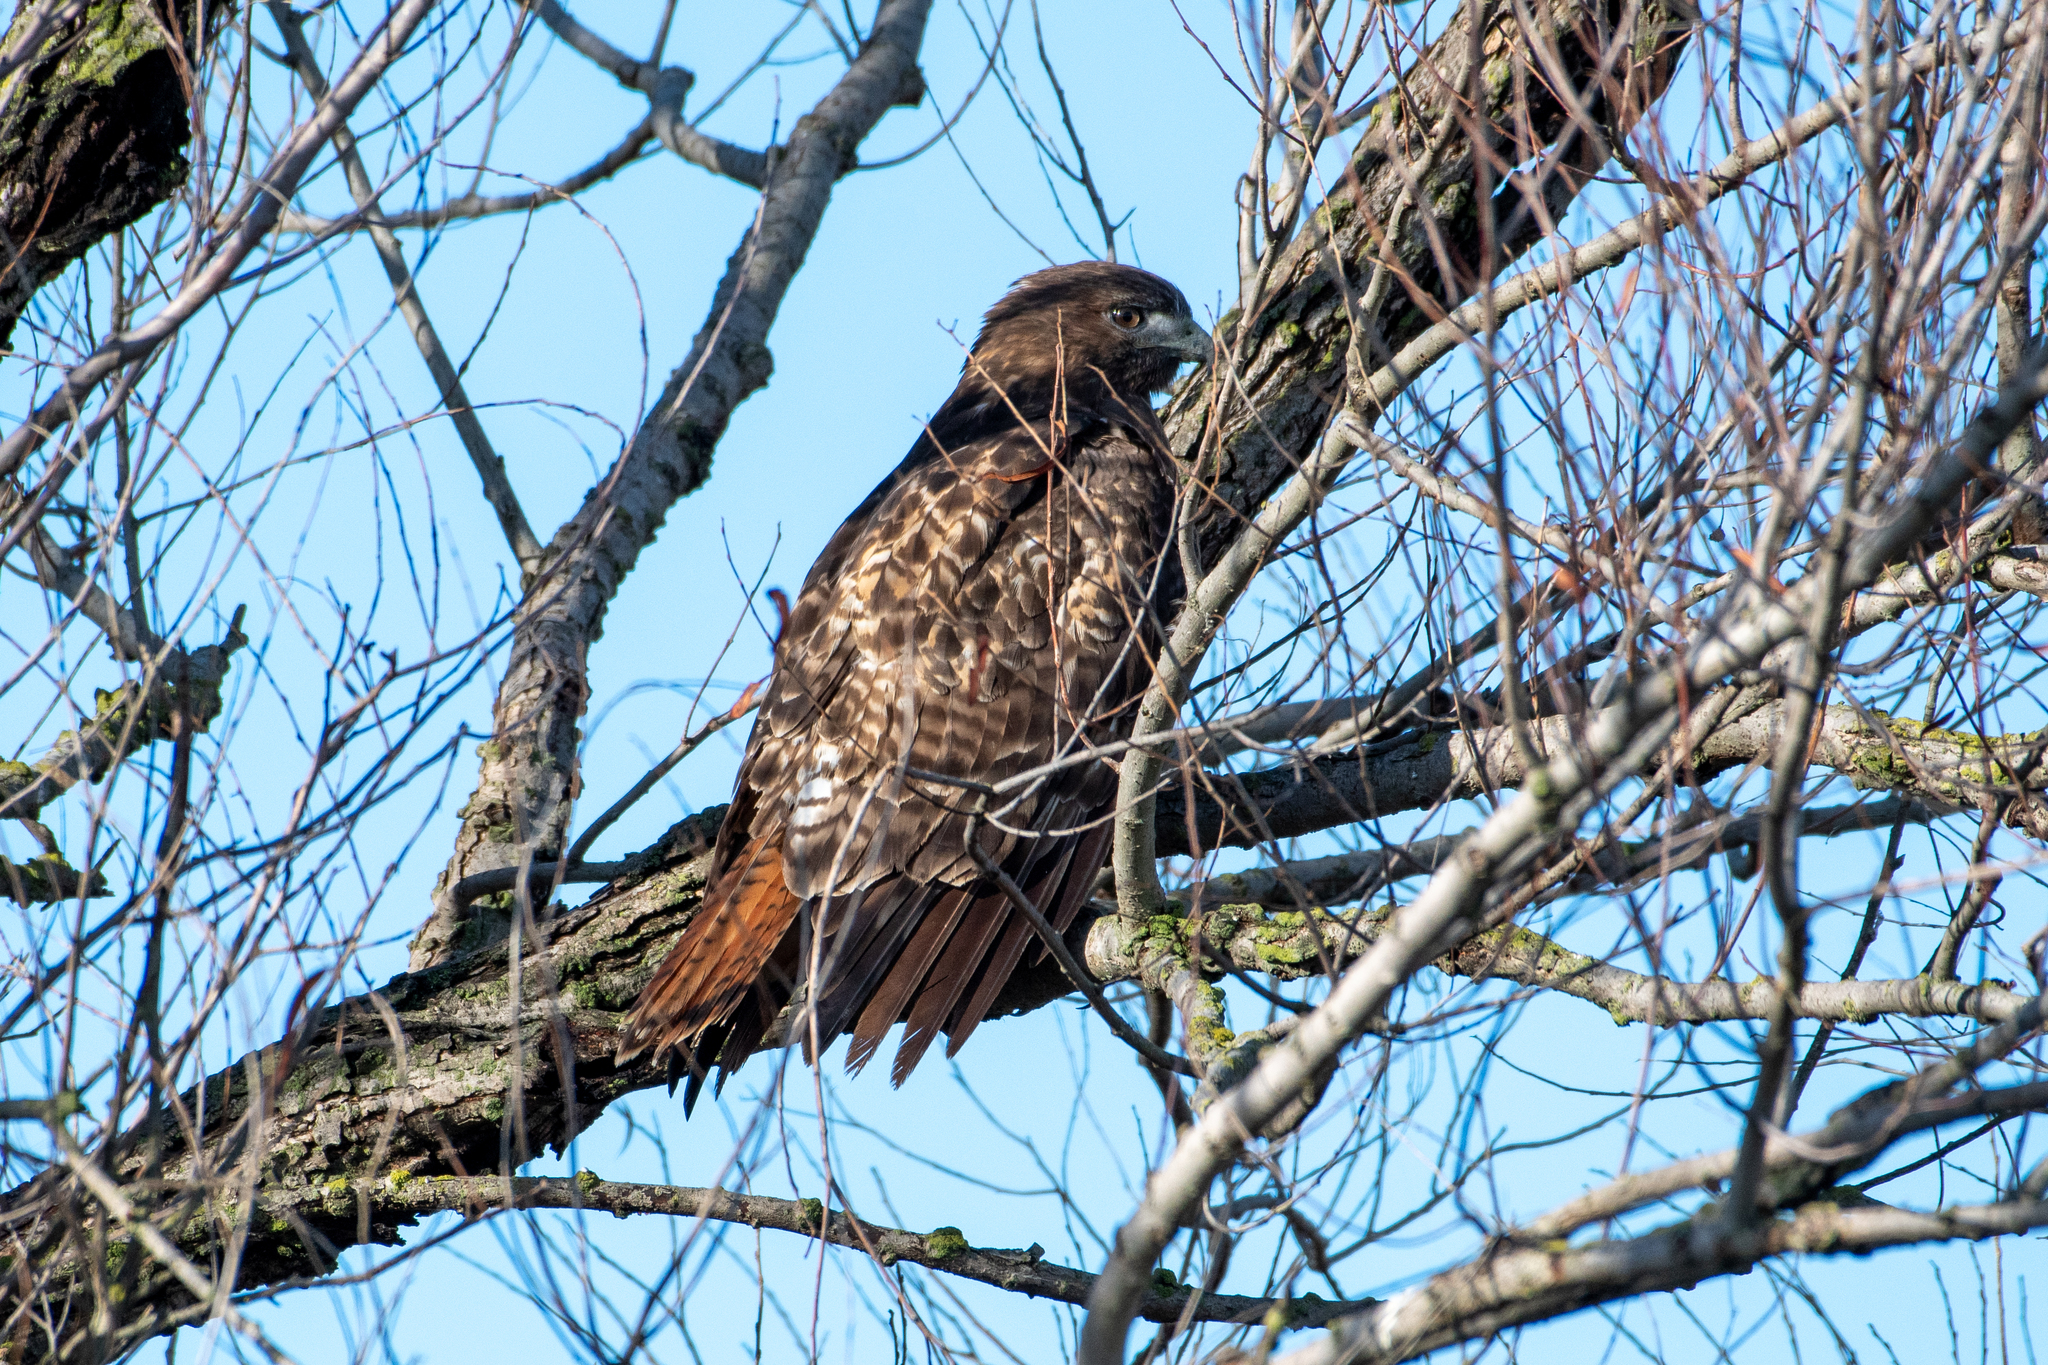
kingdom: Animalia
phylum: Chordata
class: Aves
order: Accipitriformes
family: Accipitridae
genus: Buteo
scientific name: Buteo jamaicensis
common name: Red-tailed hawk
